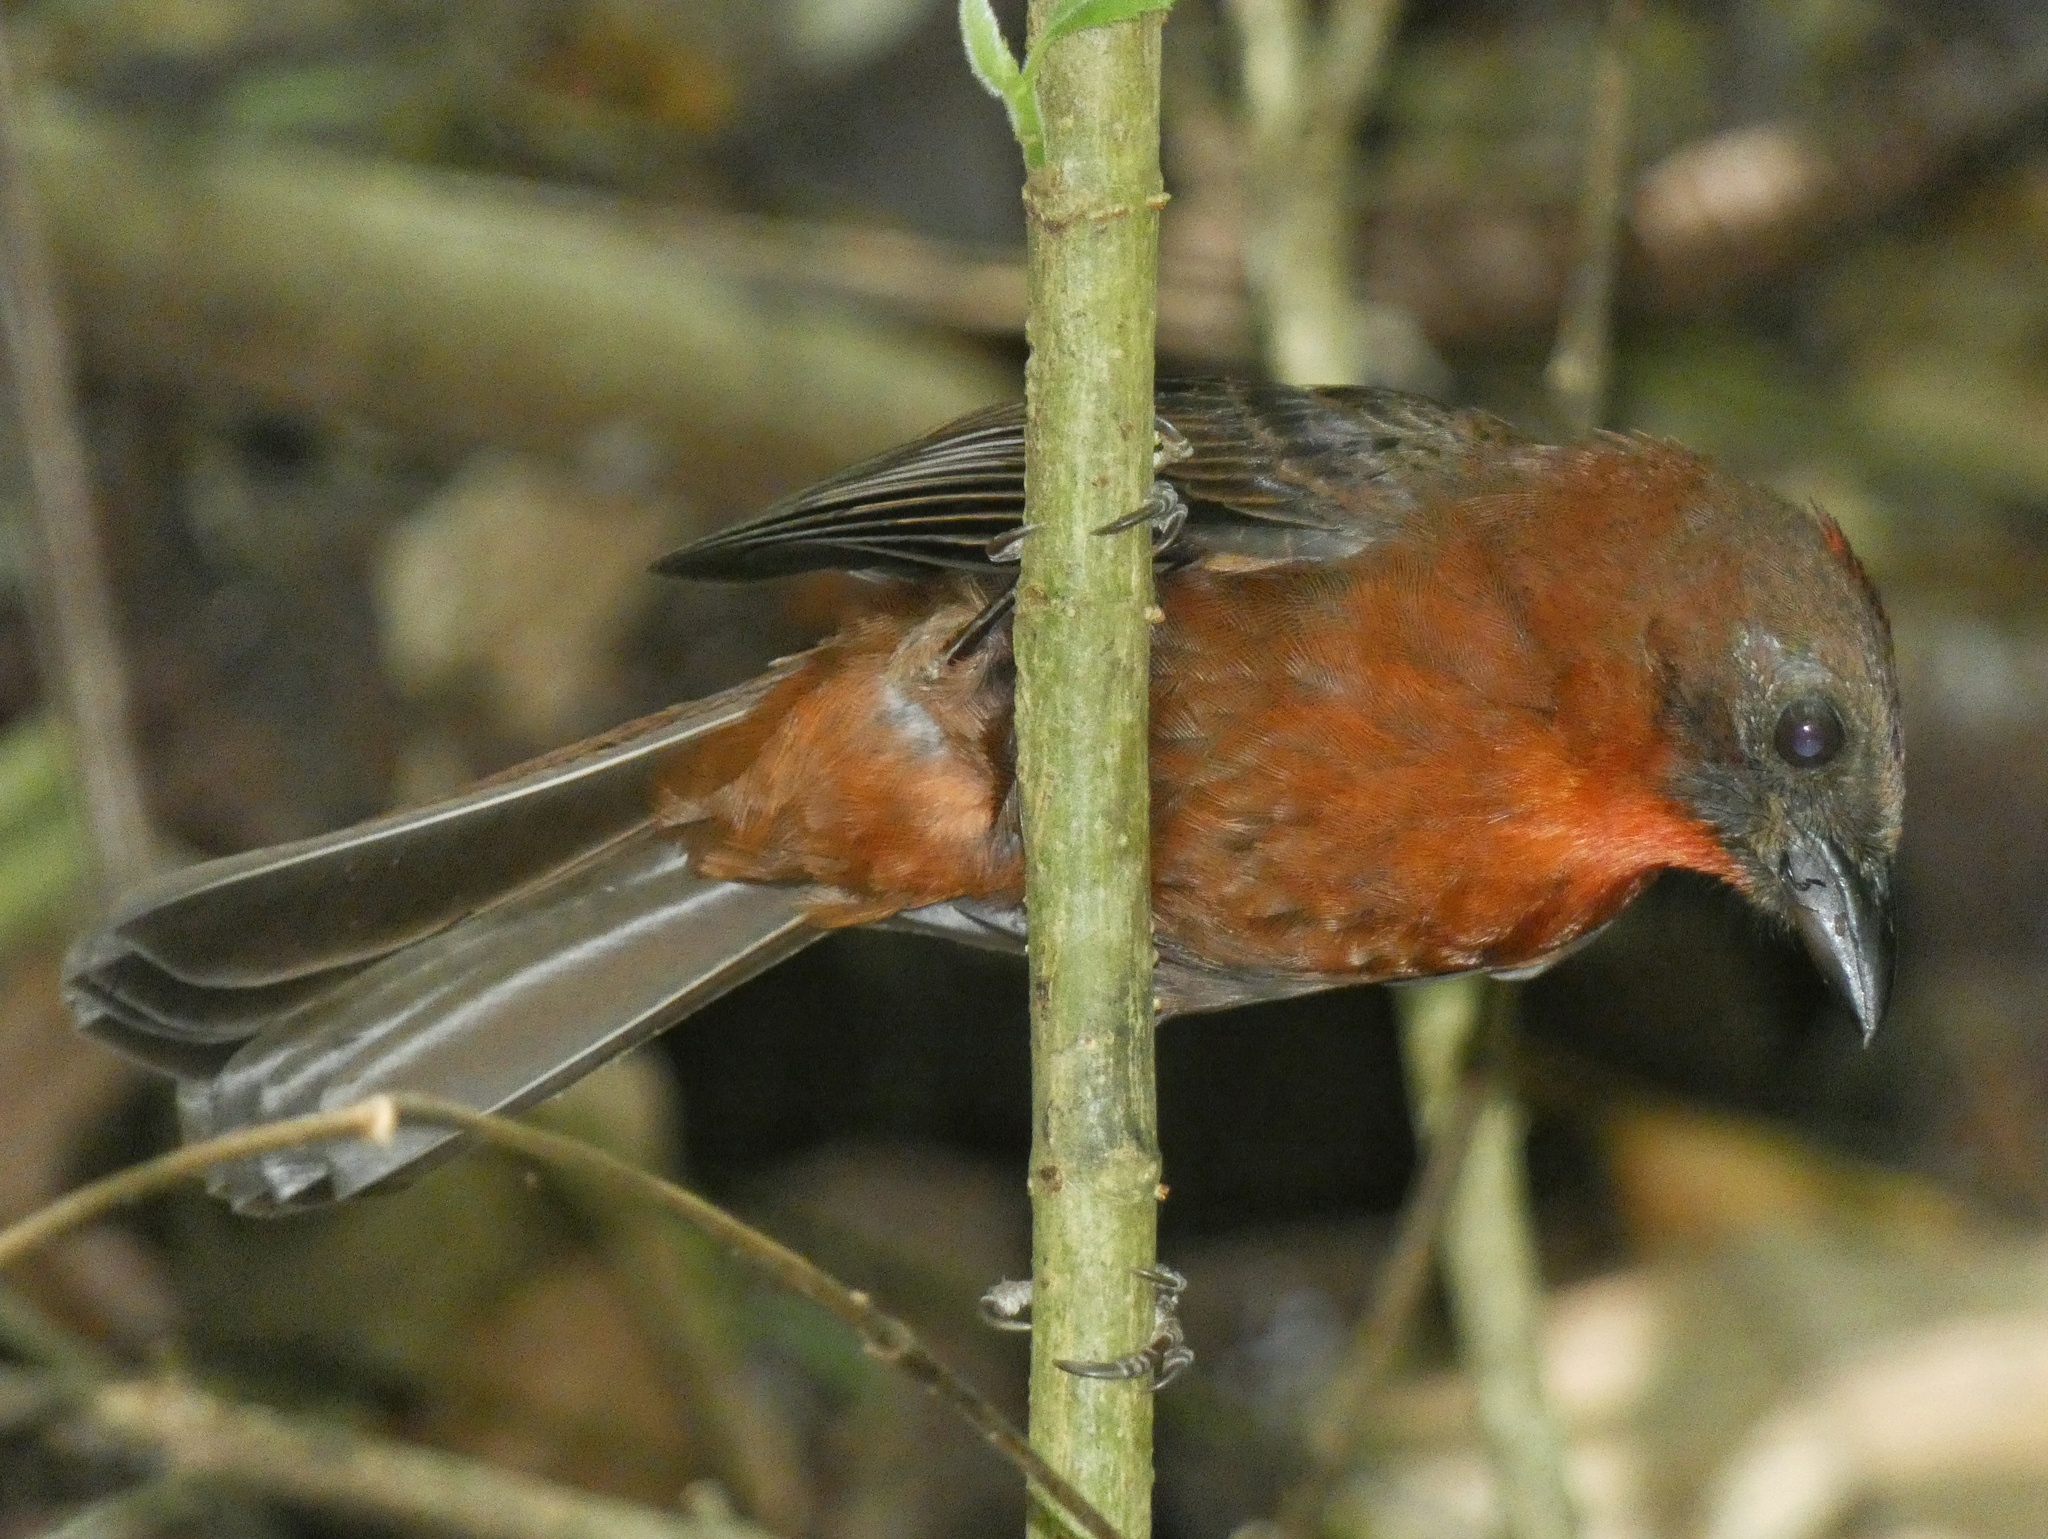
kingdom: Animalia
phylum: Chordata
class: Aves
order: Passeriformes
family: Cardinalidae
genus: Habia
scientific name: Habia fuscicauda
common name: Red-throated ant-tanager
